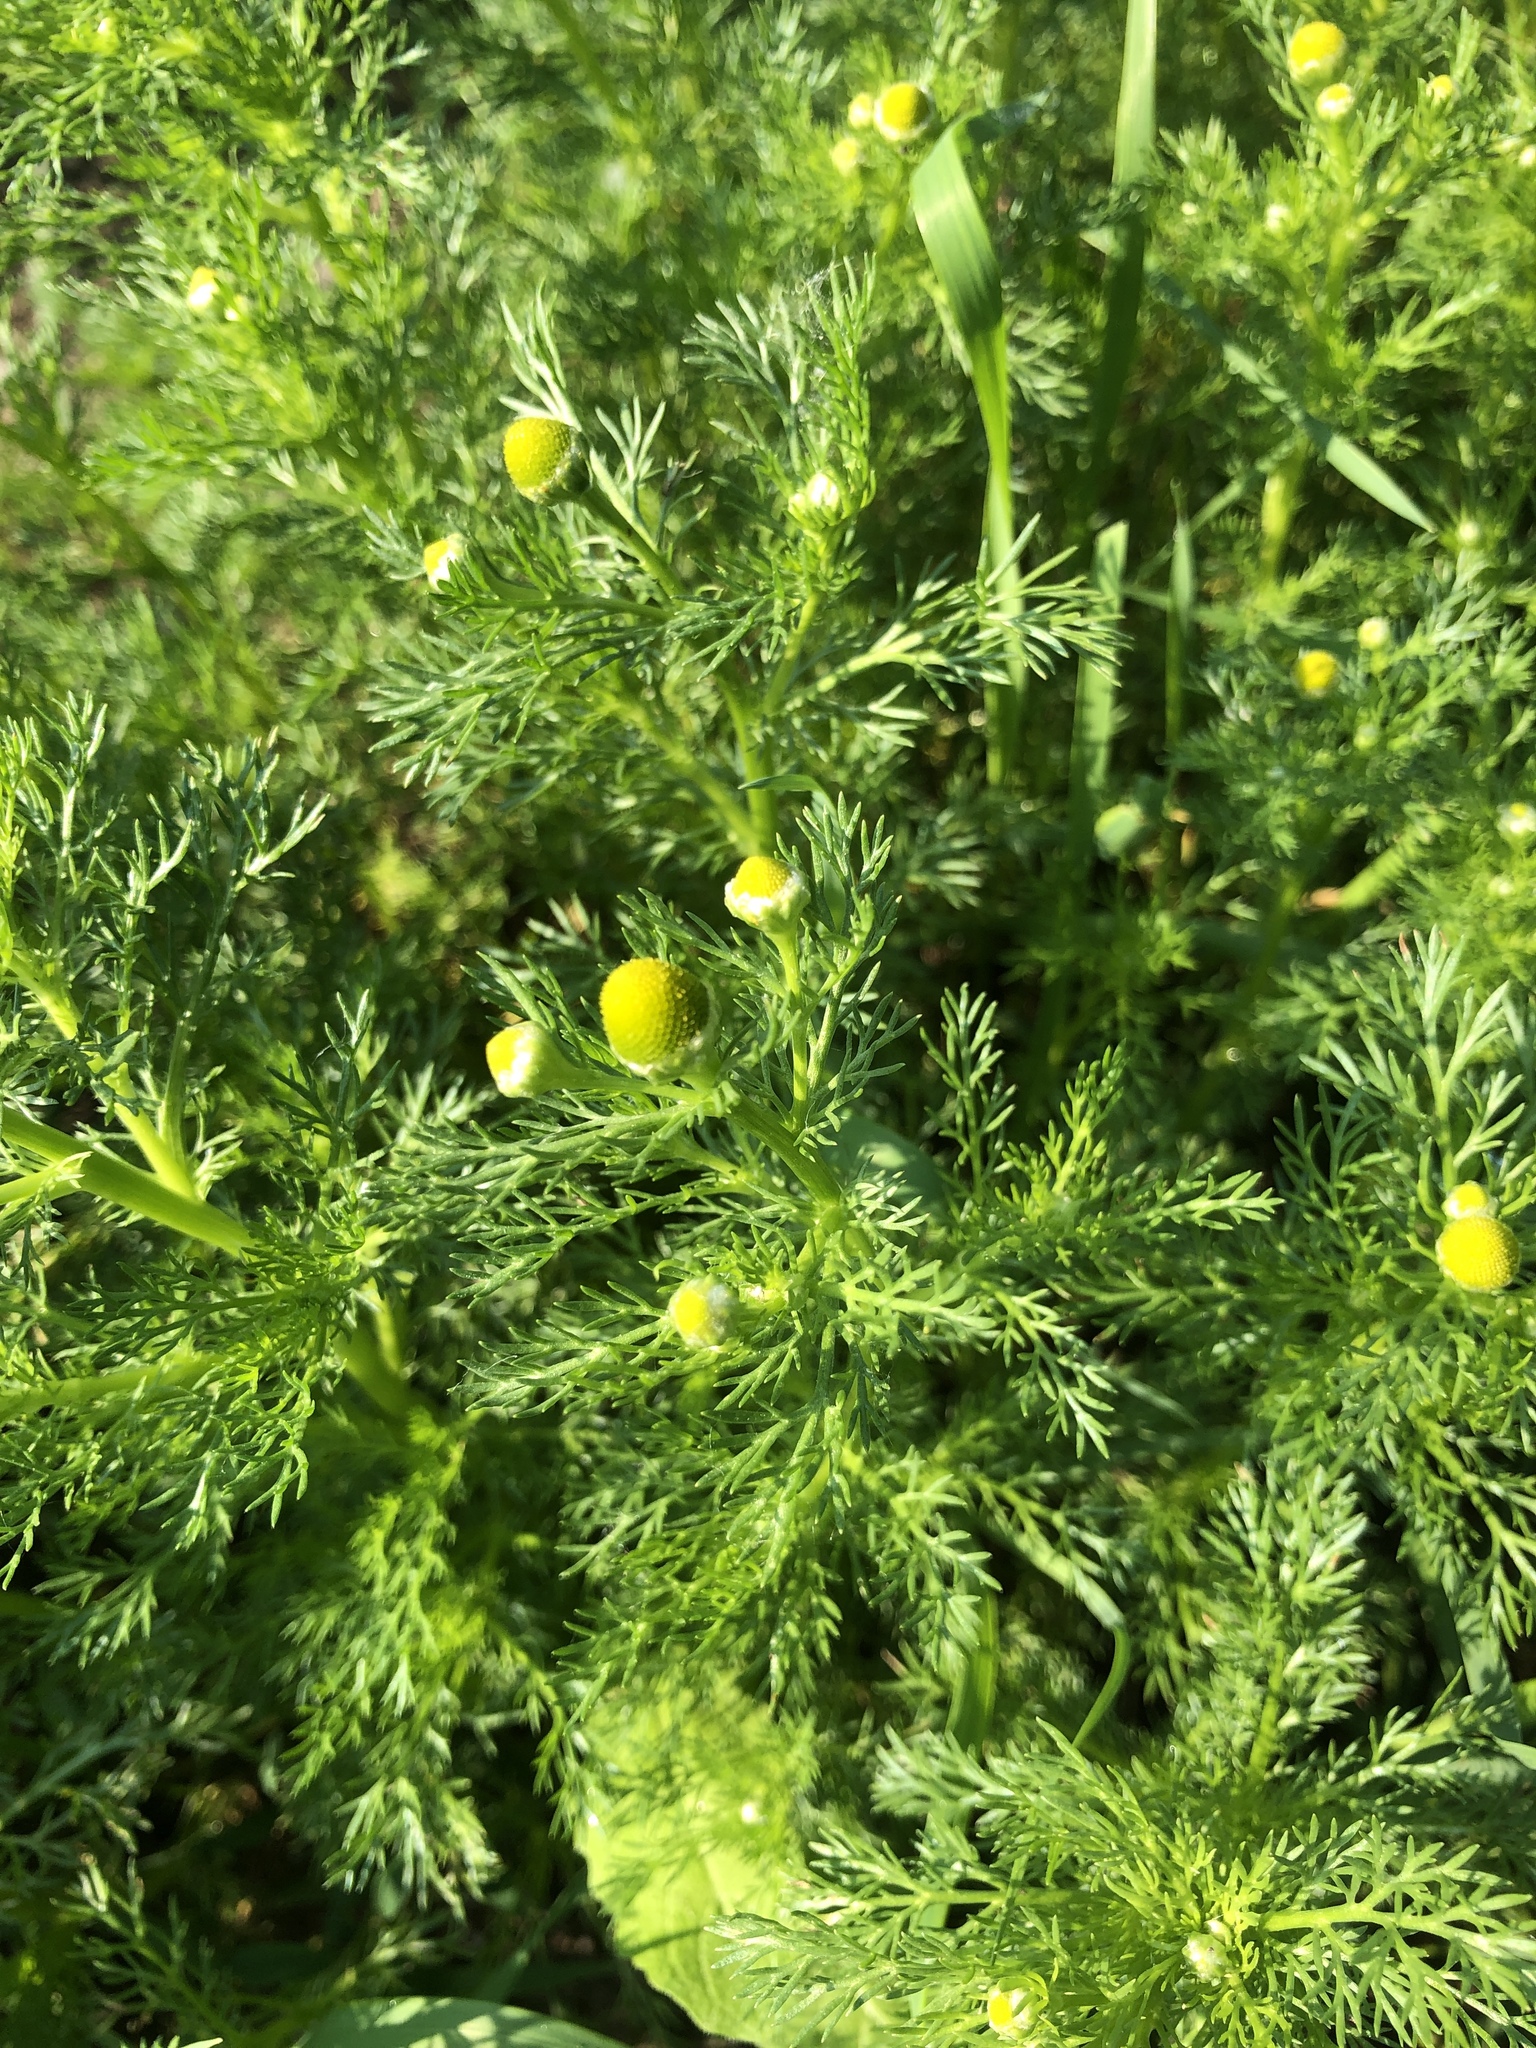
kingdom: Plantae
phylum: Tracheophyta
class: Magnoliopsida
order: Asterales
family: Asteraceae
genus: Matricaria
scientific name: Matricaria discoidea
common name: Disc mayweed
